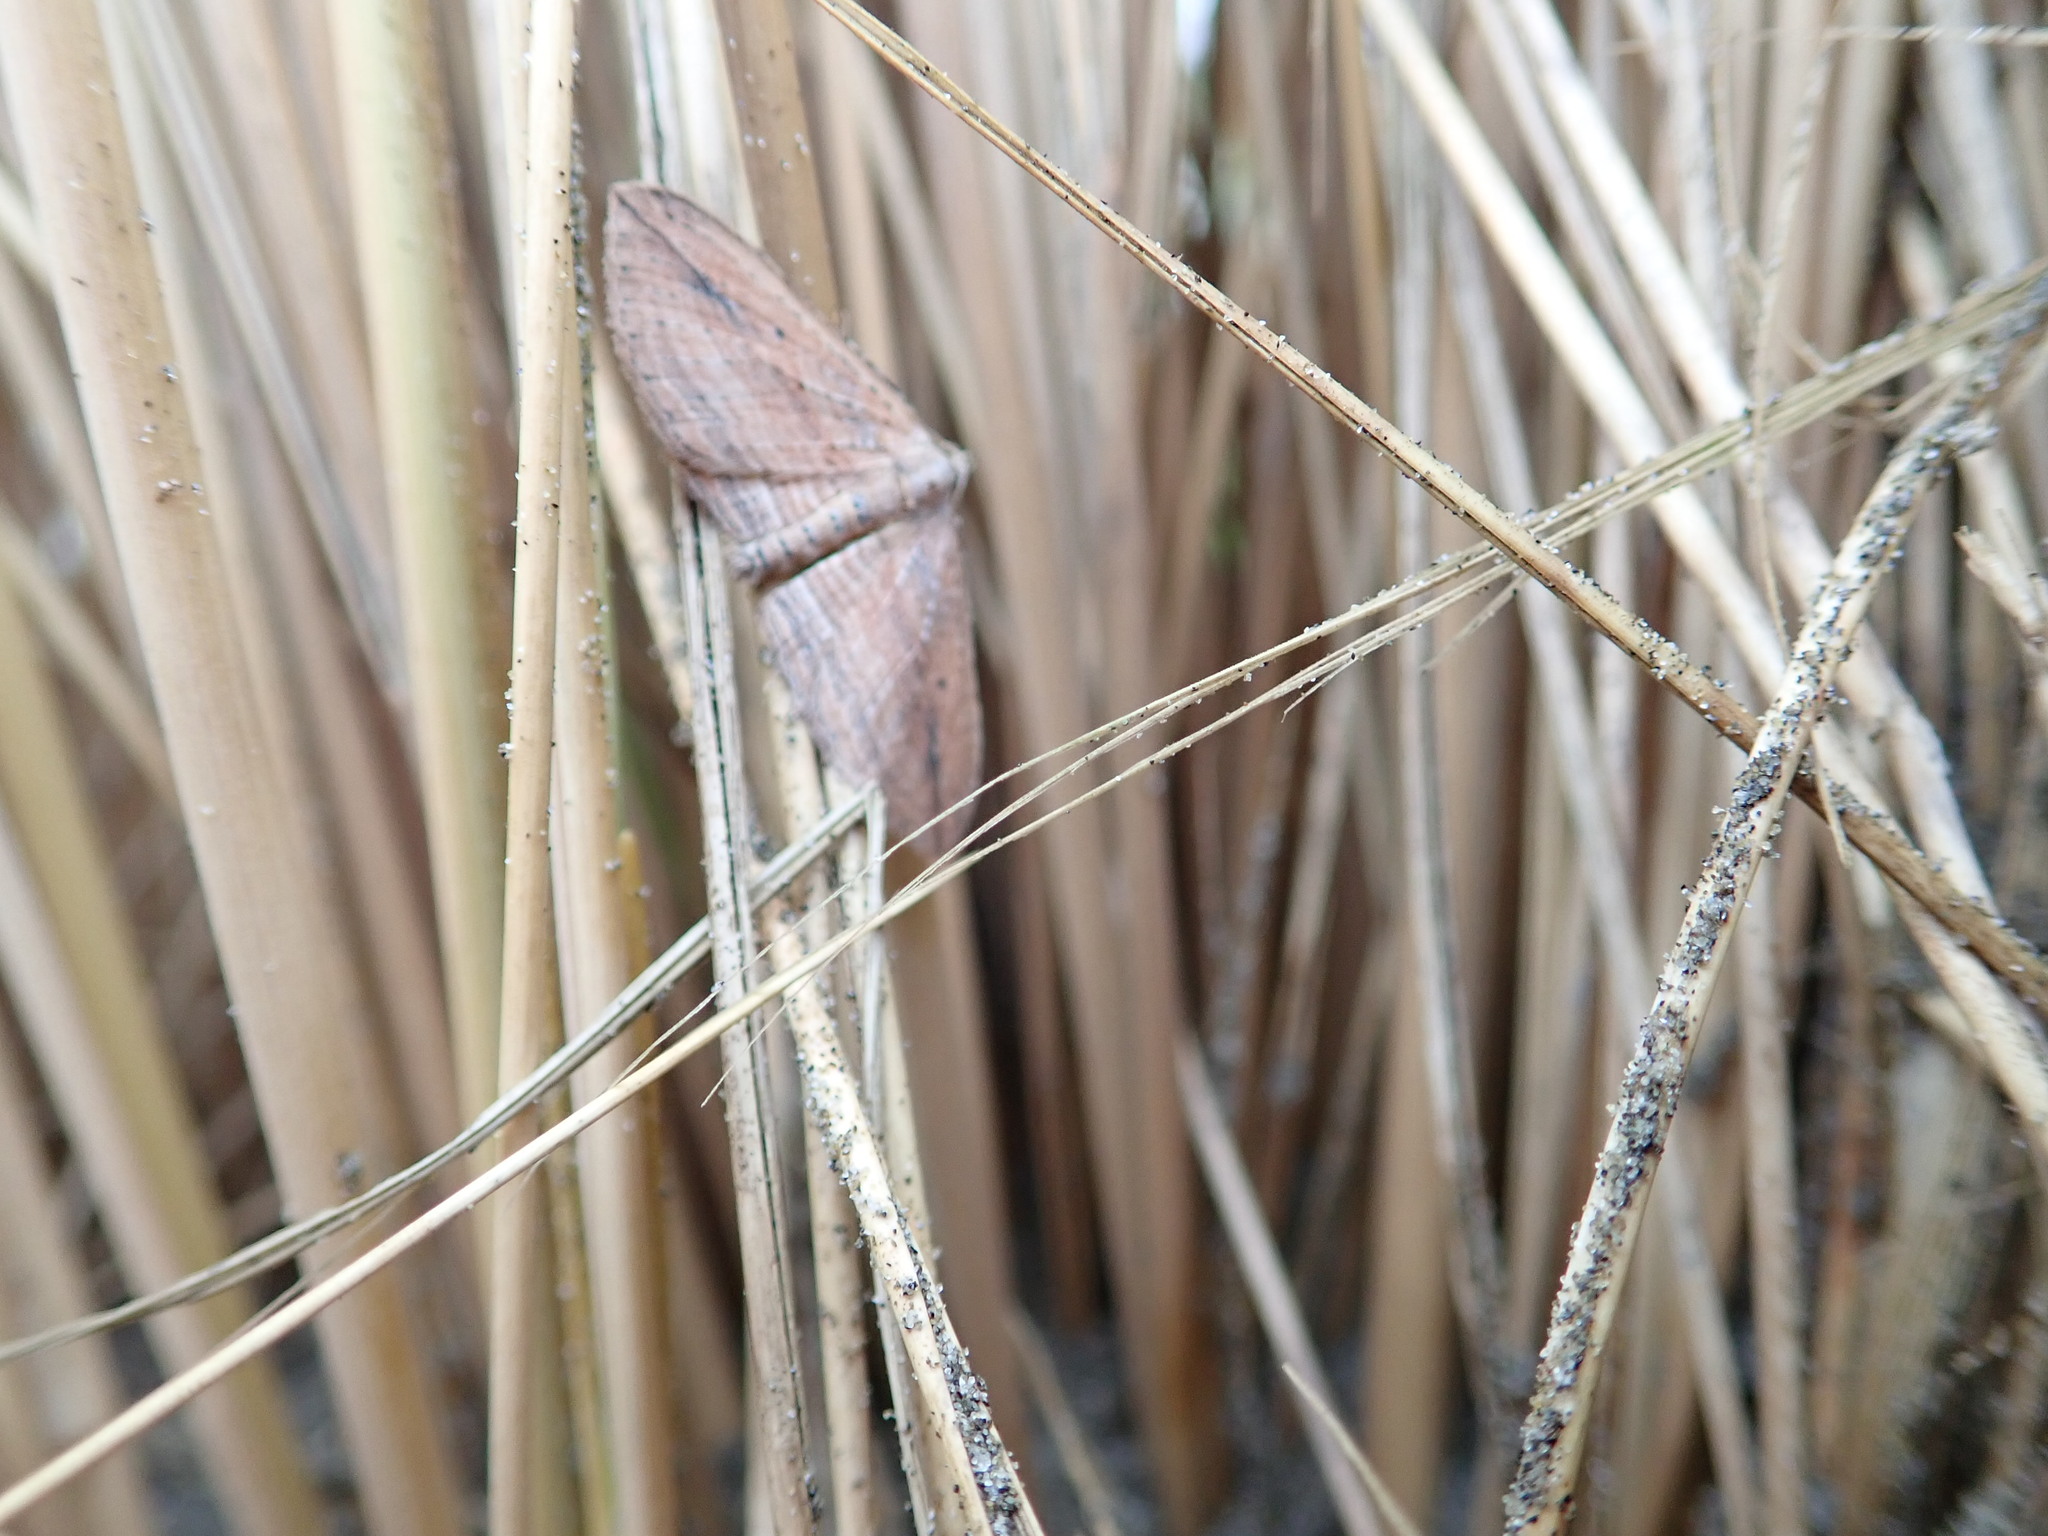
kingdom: Animalia
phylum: Arthropoda
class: Insecta
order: Lepidoptera
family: Geometridae
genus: Austrocidaria
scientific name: Austrocidaria gobiata
